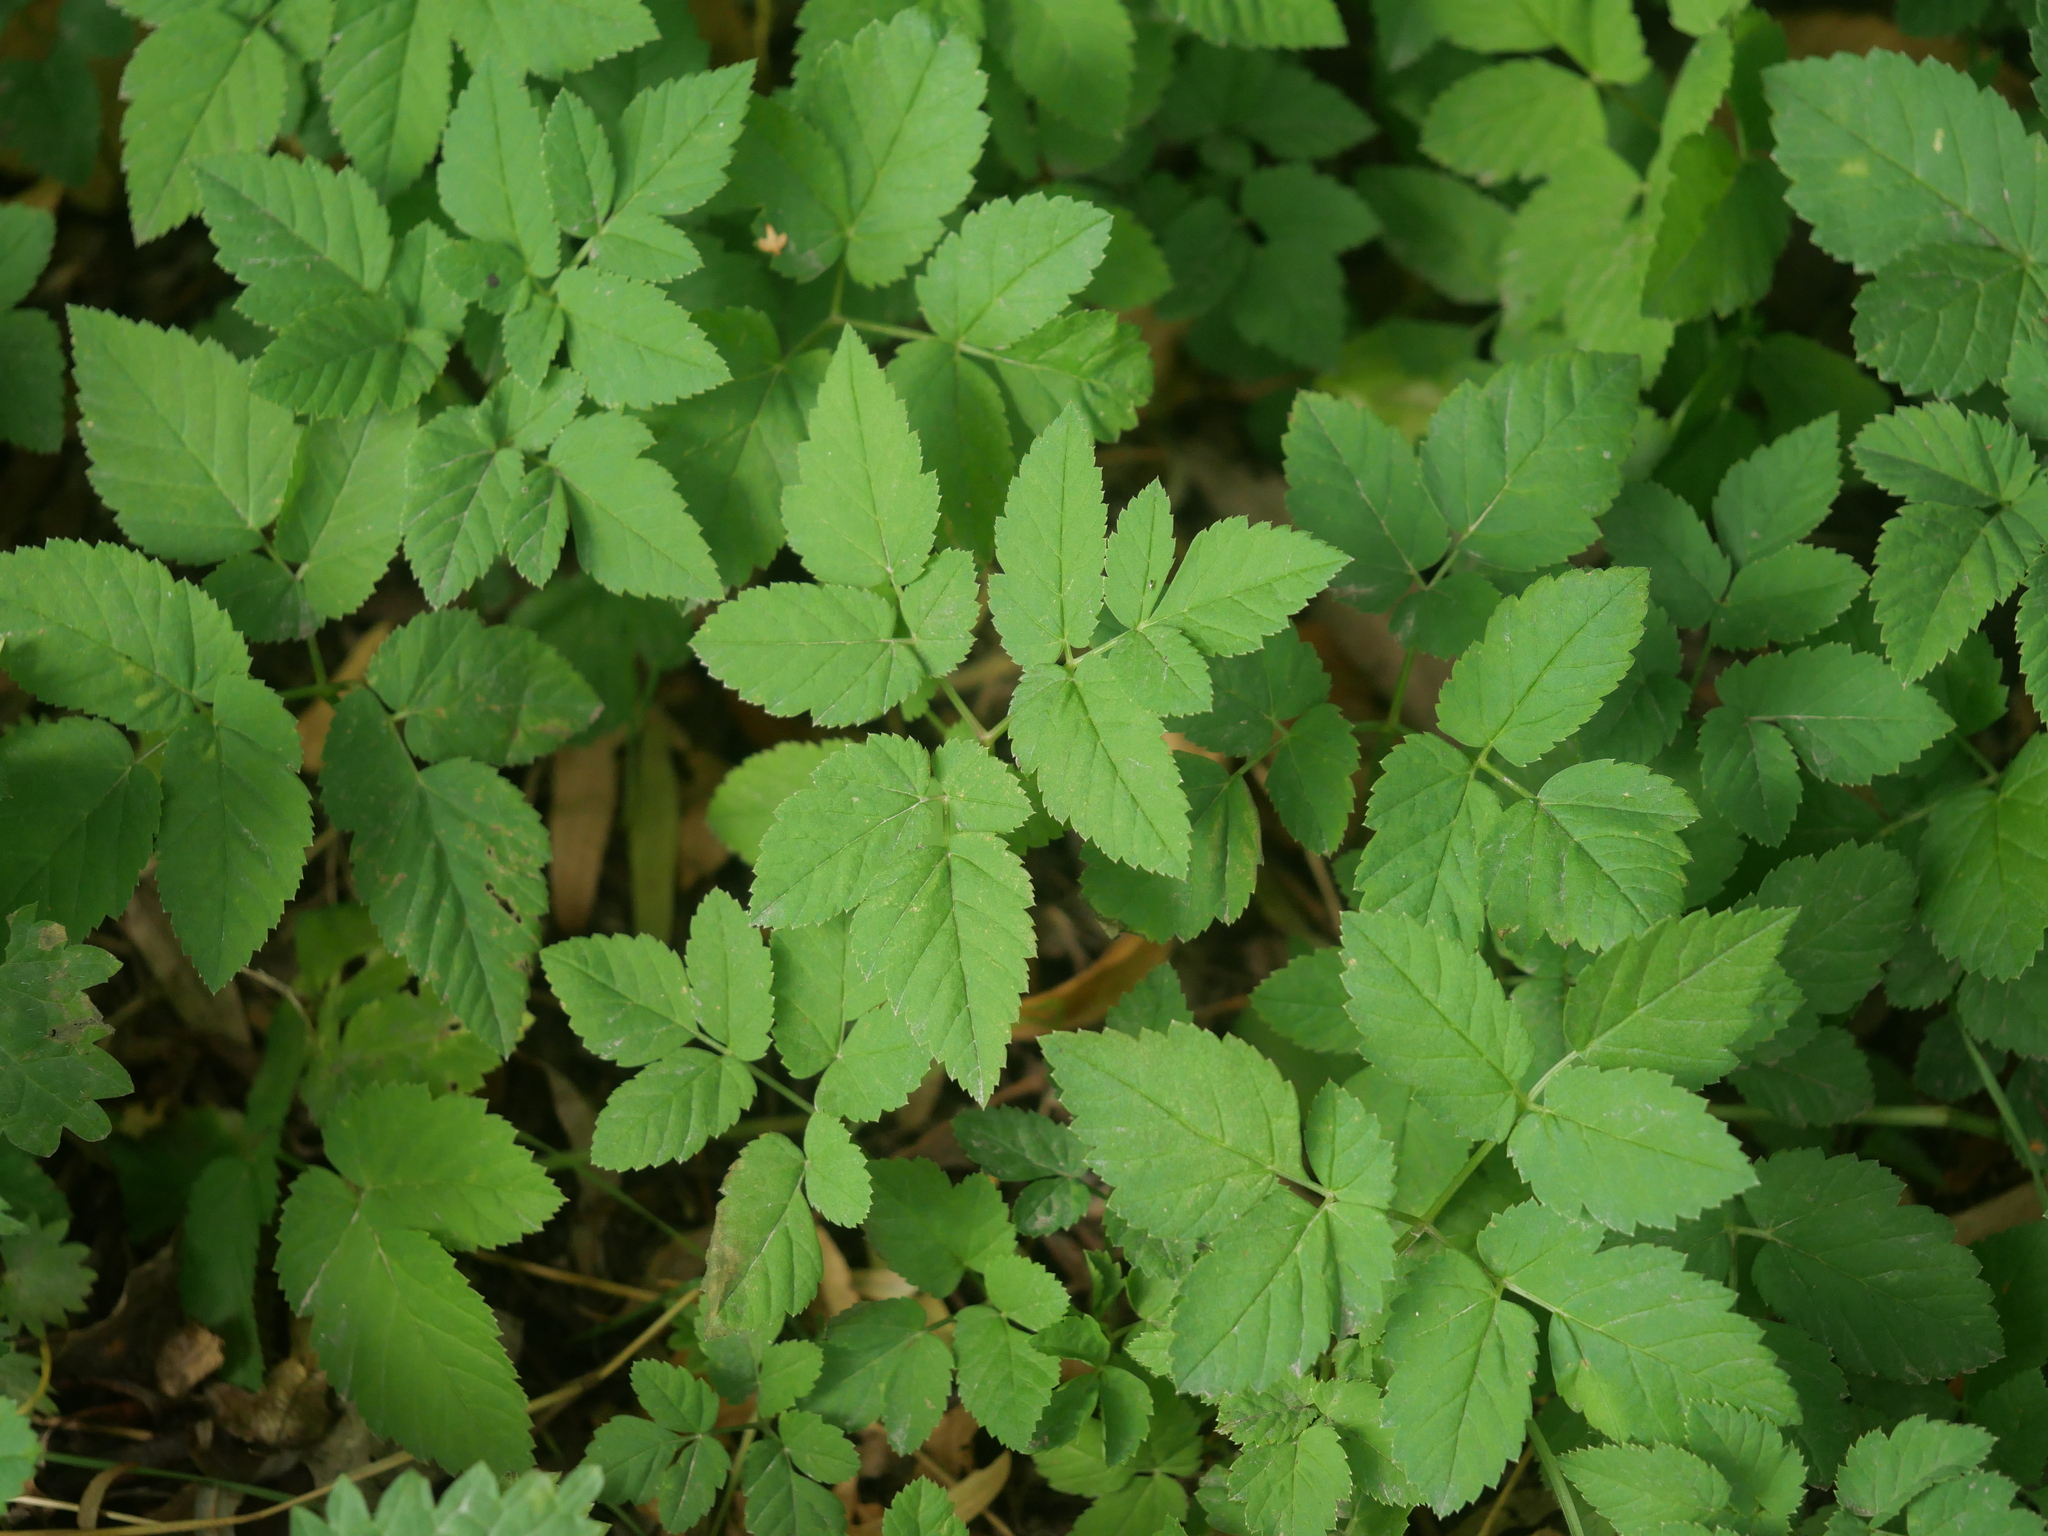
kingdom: Plantae
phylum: Tracheophyta
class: Magnoliopsida
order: Apiales
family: Apiaceae
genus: Aegopodium
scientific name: Aegopodium podagraria
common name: Ground-elder
